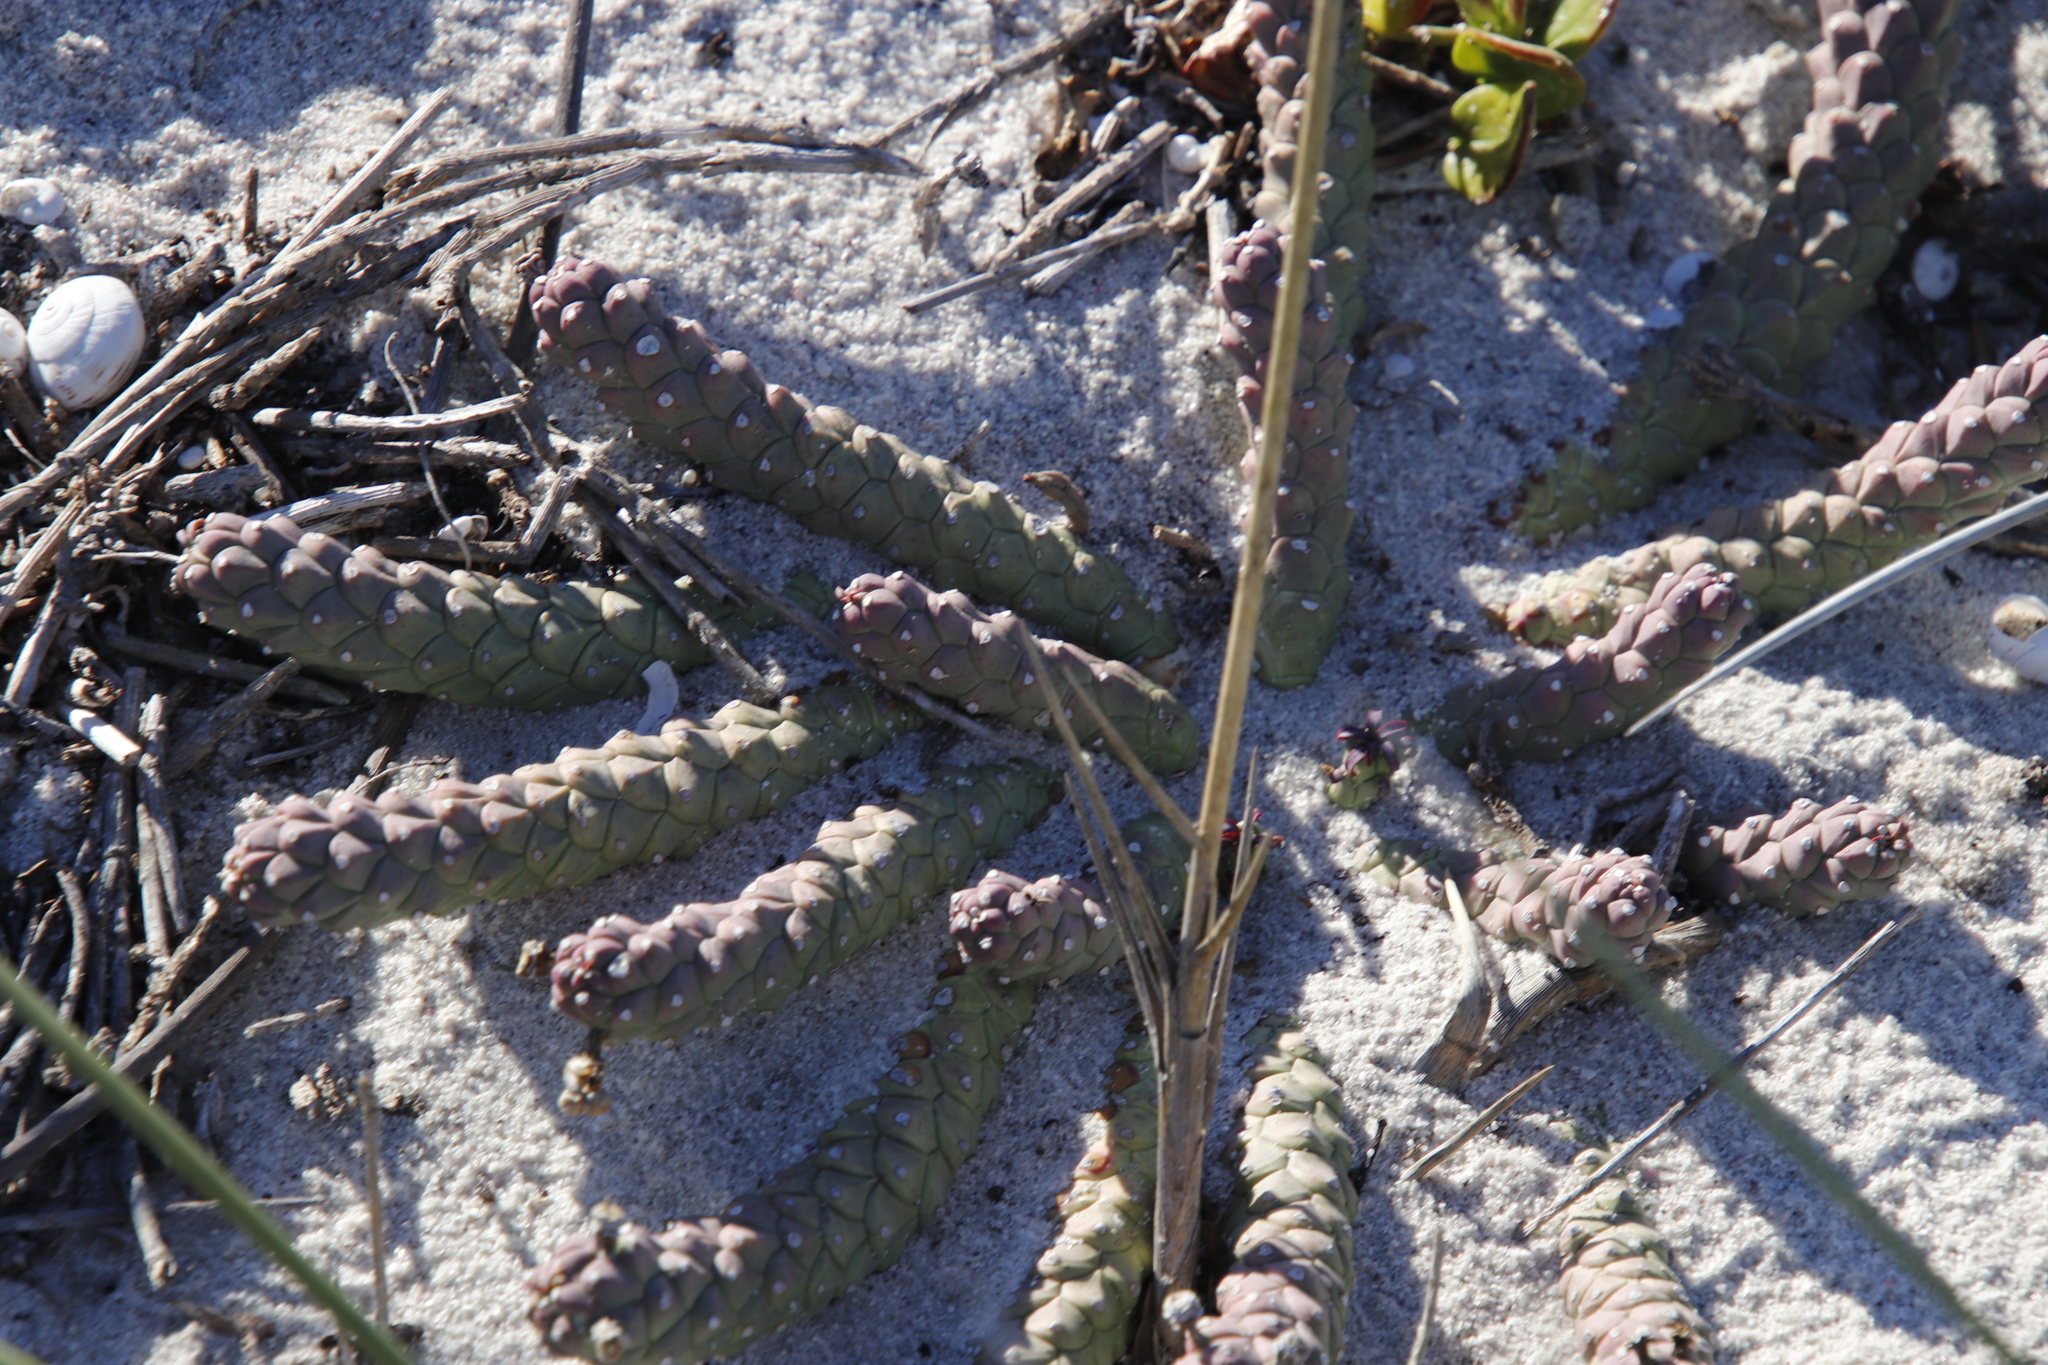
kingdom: Plantae
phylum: Tracheophyta
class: Magnoliopsida
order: Malpighiales
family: Euphorbiaceae
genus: Euphorbia
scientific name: Euphorbia caput-medusae
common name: Medusa's-head
